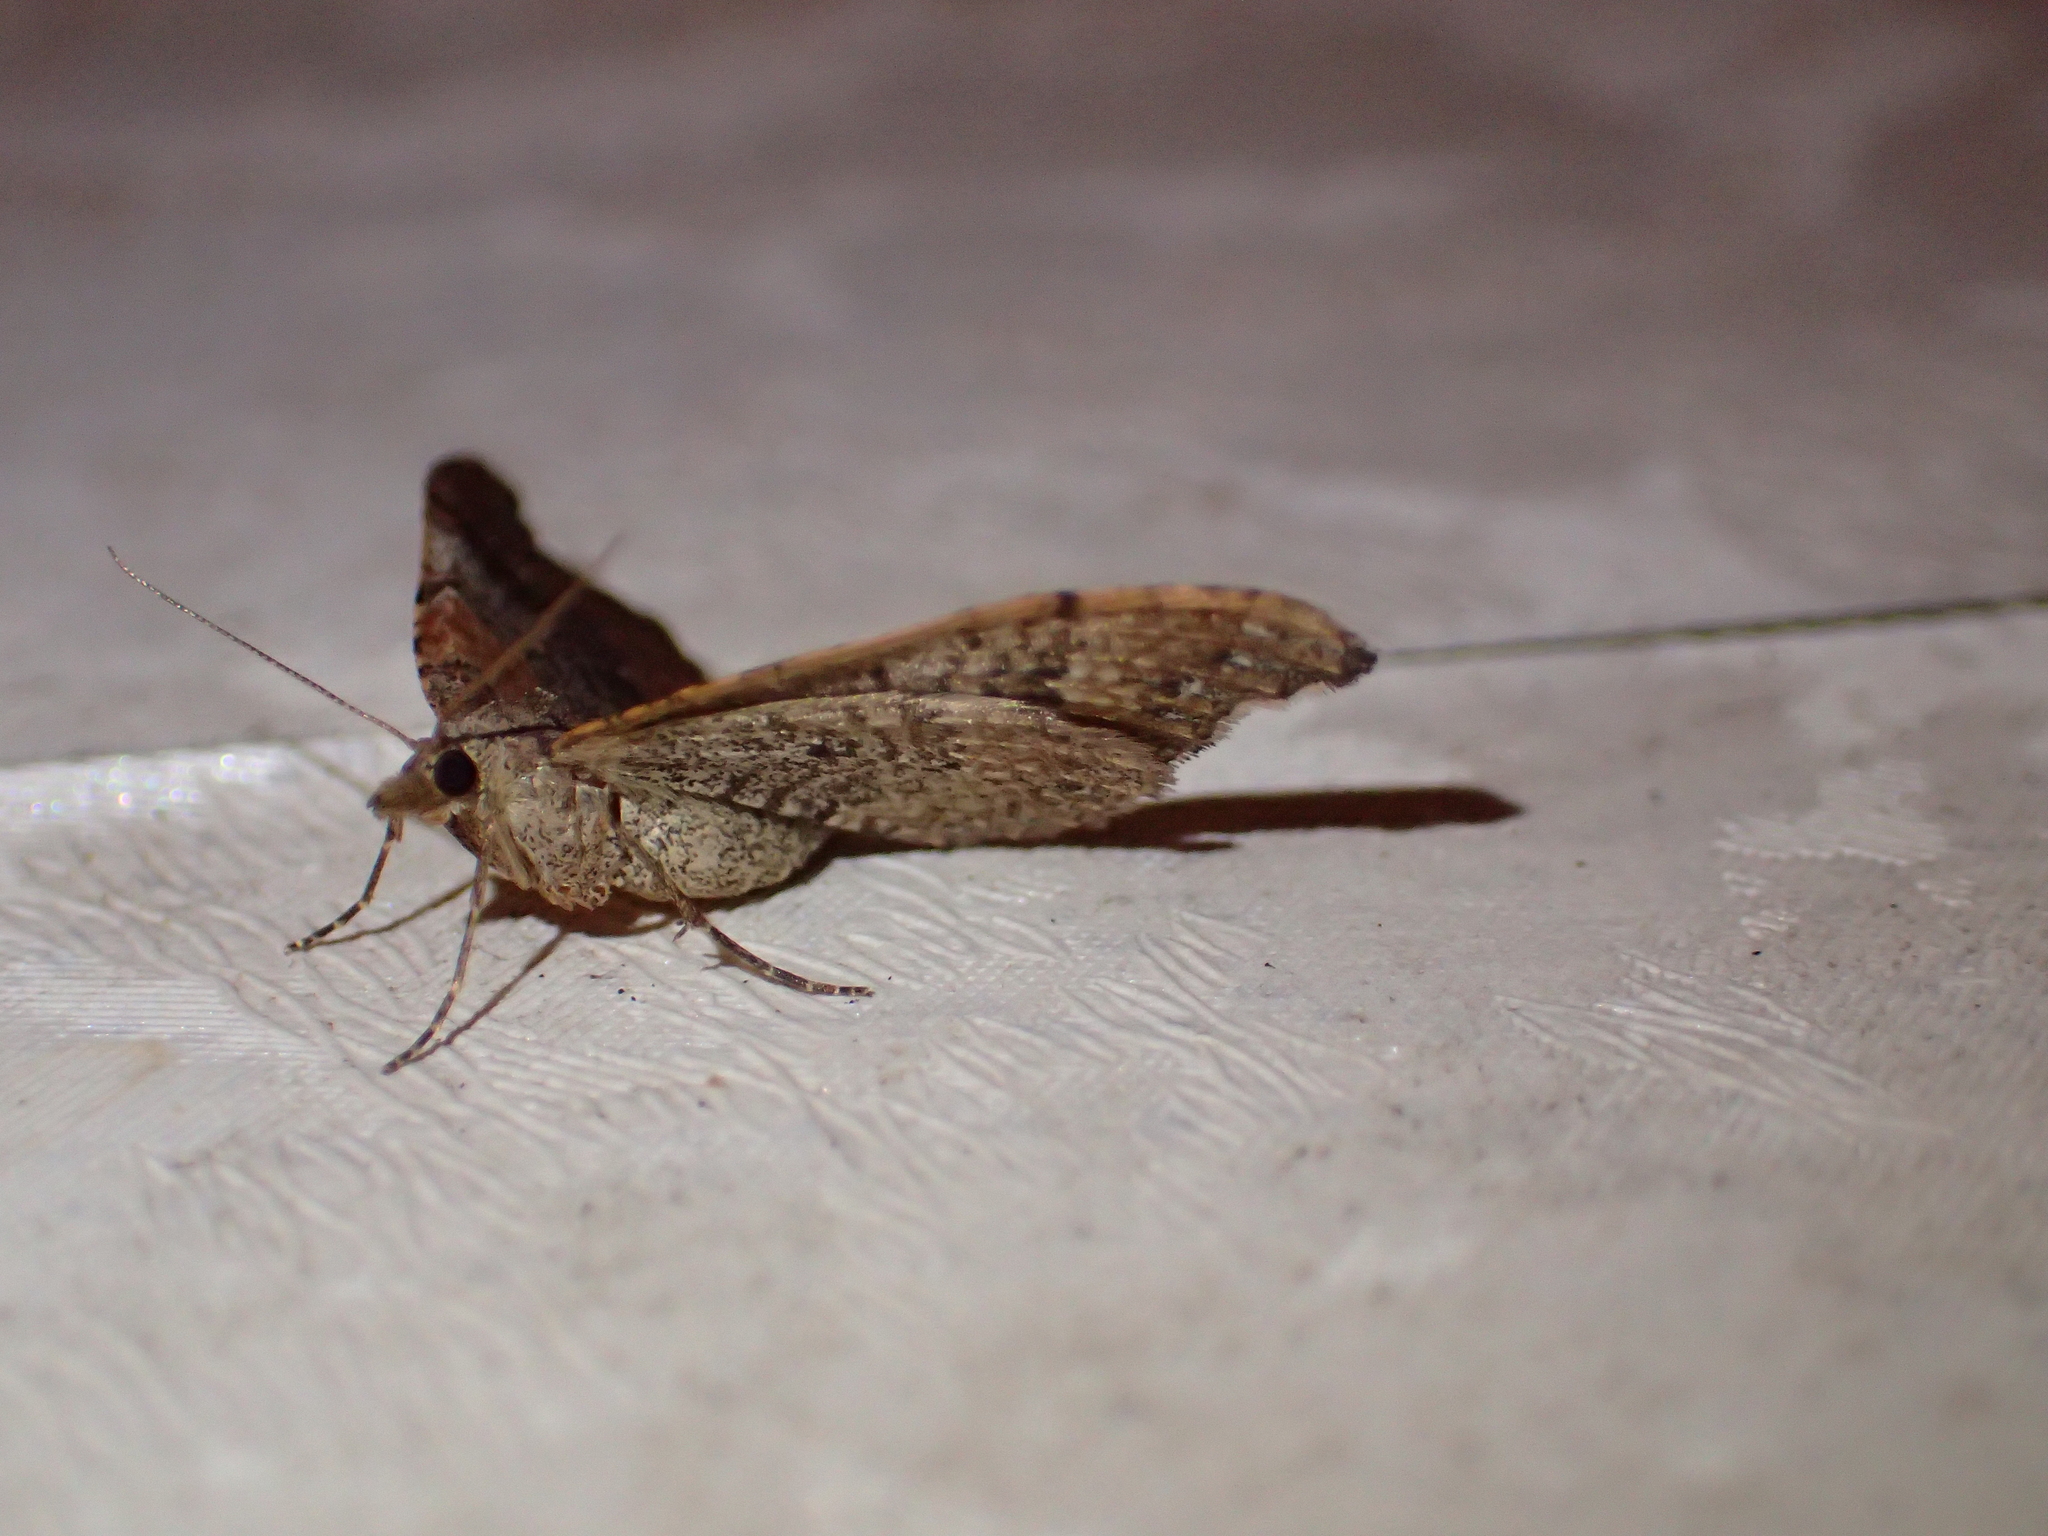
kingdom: Animalia
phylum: Arthropoda
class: Insecta
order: Lepidoptera
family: Geometridae
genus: Homodotis
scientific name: Homodotis megaspilata
